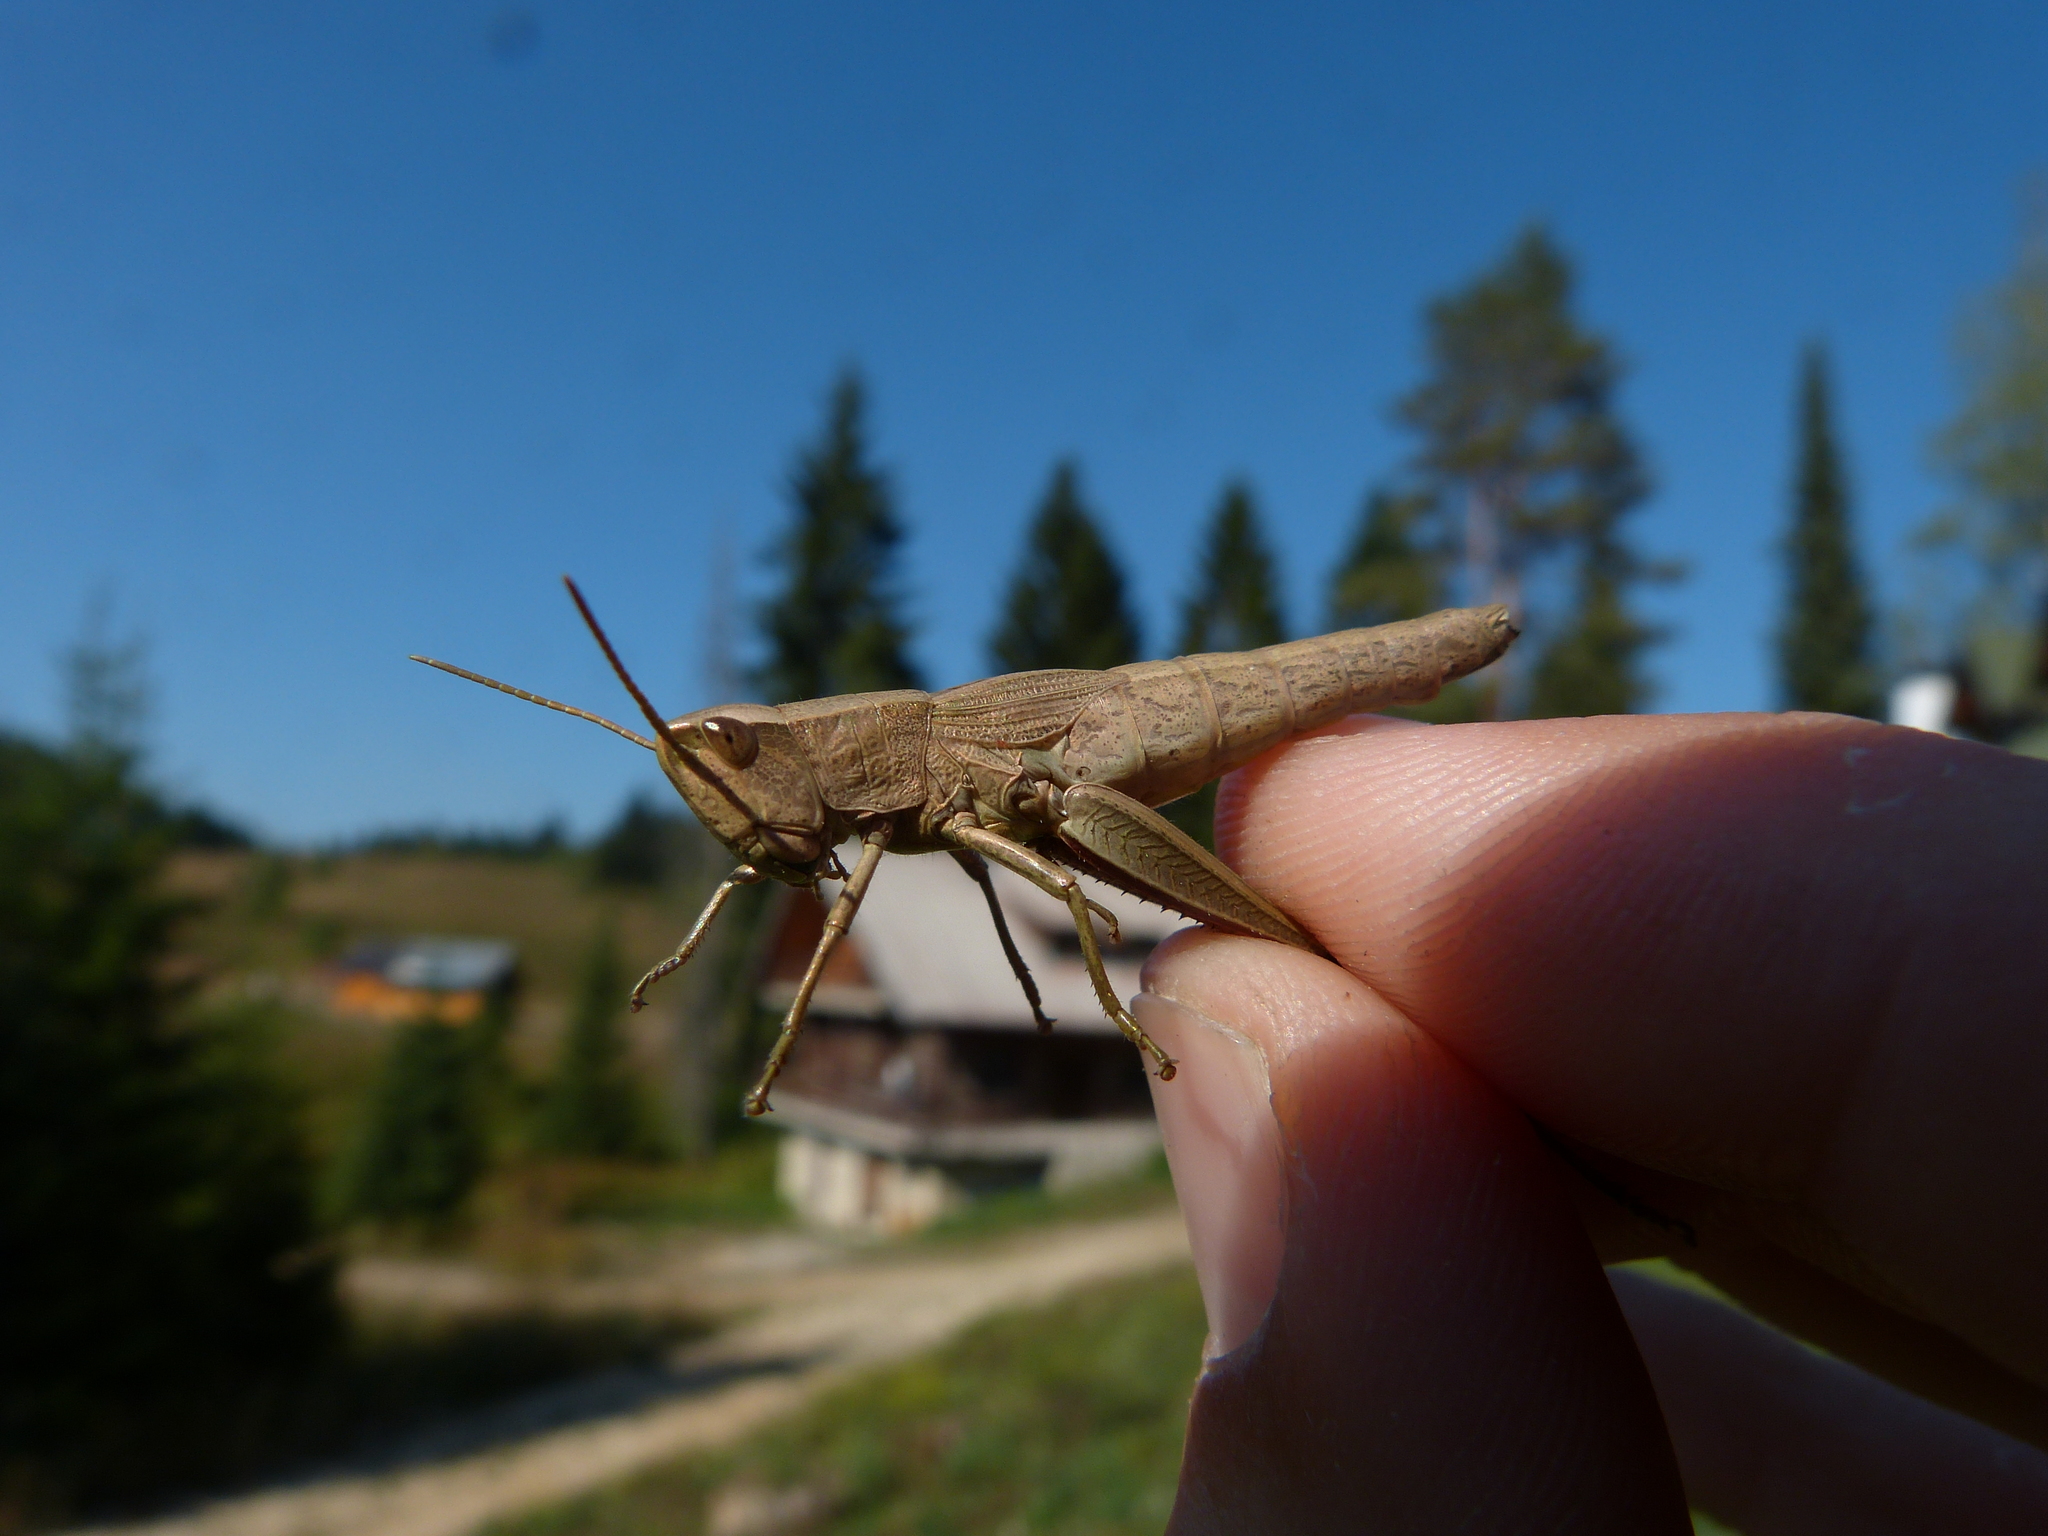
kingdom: Animalia
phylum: Arthropoda
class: Insecta
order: Orthoptera
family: Acrididae
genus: Chrysochraon
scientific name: Chrysochraon dispar
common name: Large gold grasshopper
